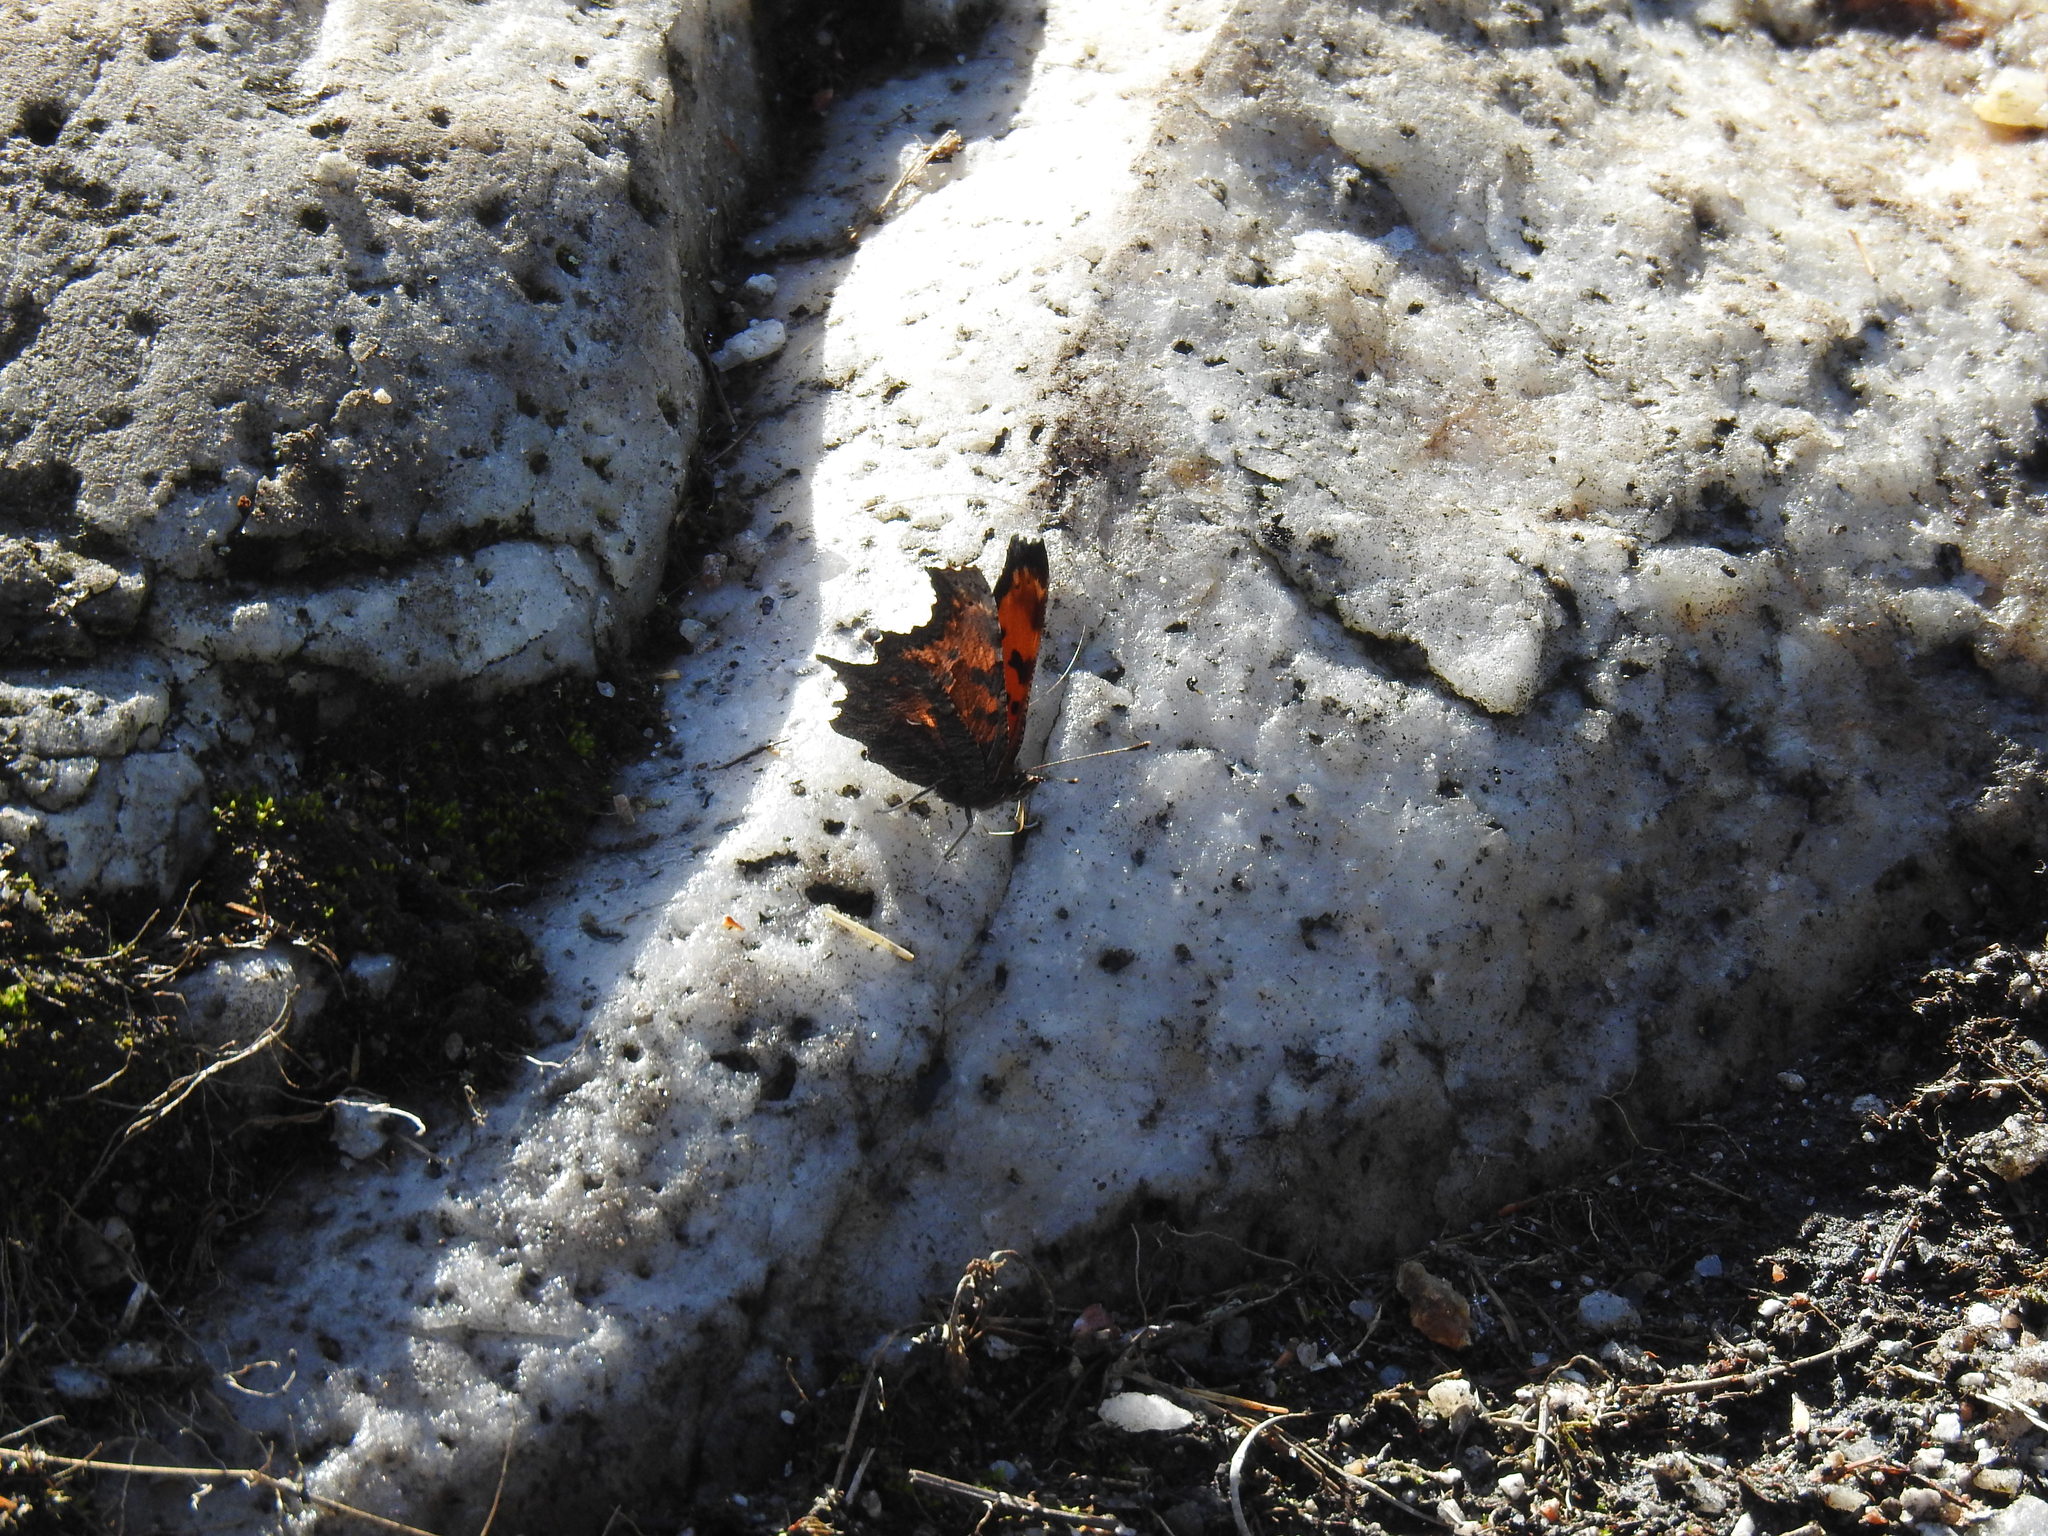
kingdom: Animalia
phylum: Arthropoda
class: Insecta
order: Lepidoptera
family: Nymphalidae
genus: Polygonia
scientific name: Polygonia progne
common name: Gray comma
